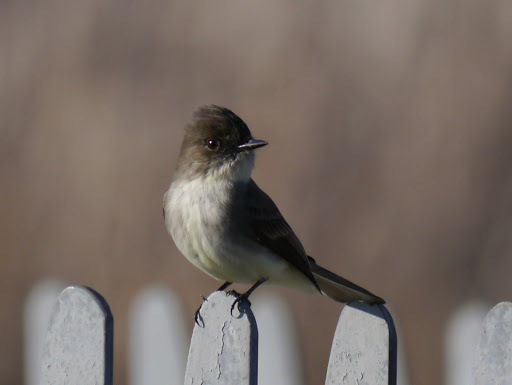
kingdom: Animalia
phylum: Chordata
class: Aves
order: Passeriformes
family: Tyrannidae
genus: Sayornis
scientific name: Sayornis phoebe
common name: Eastern phoebe
